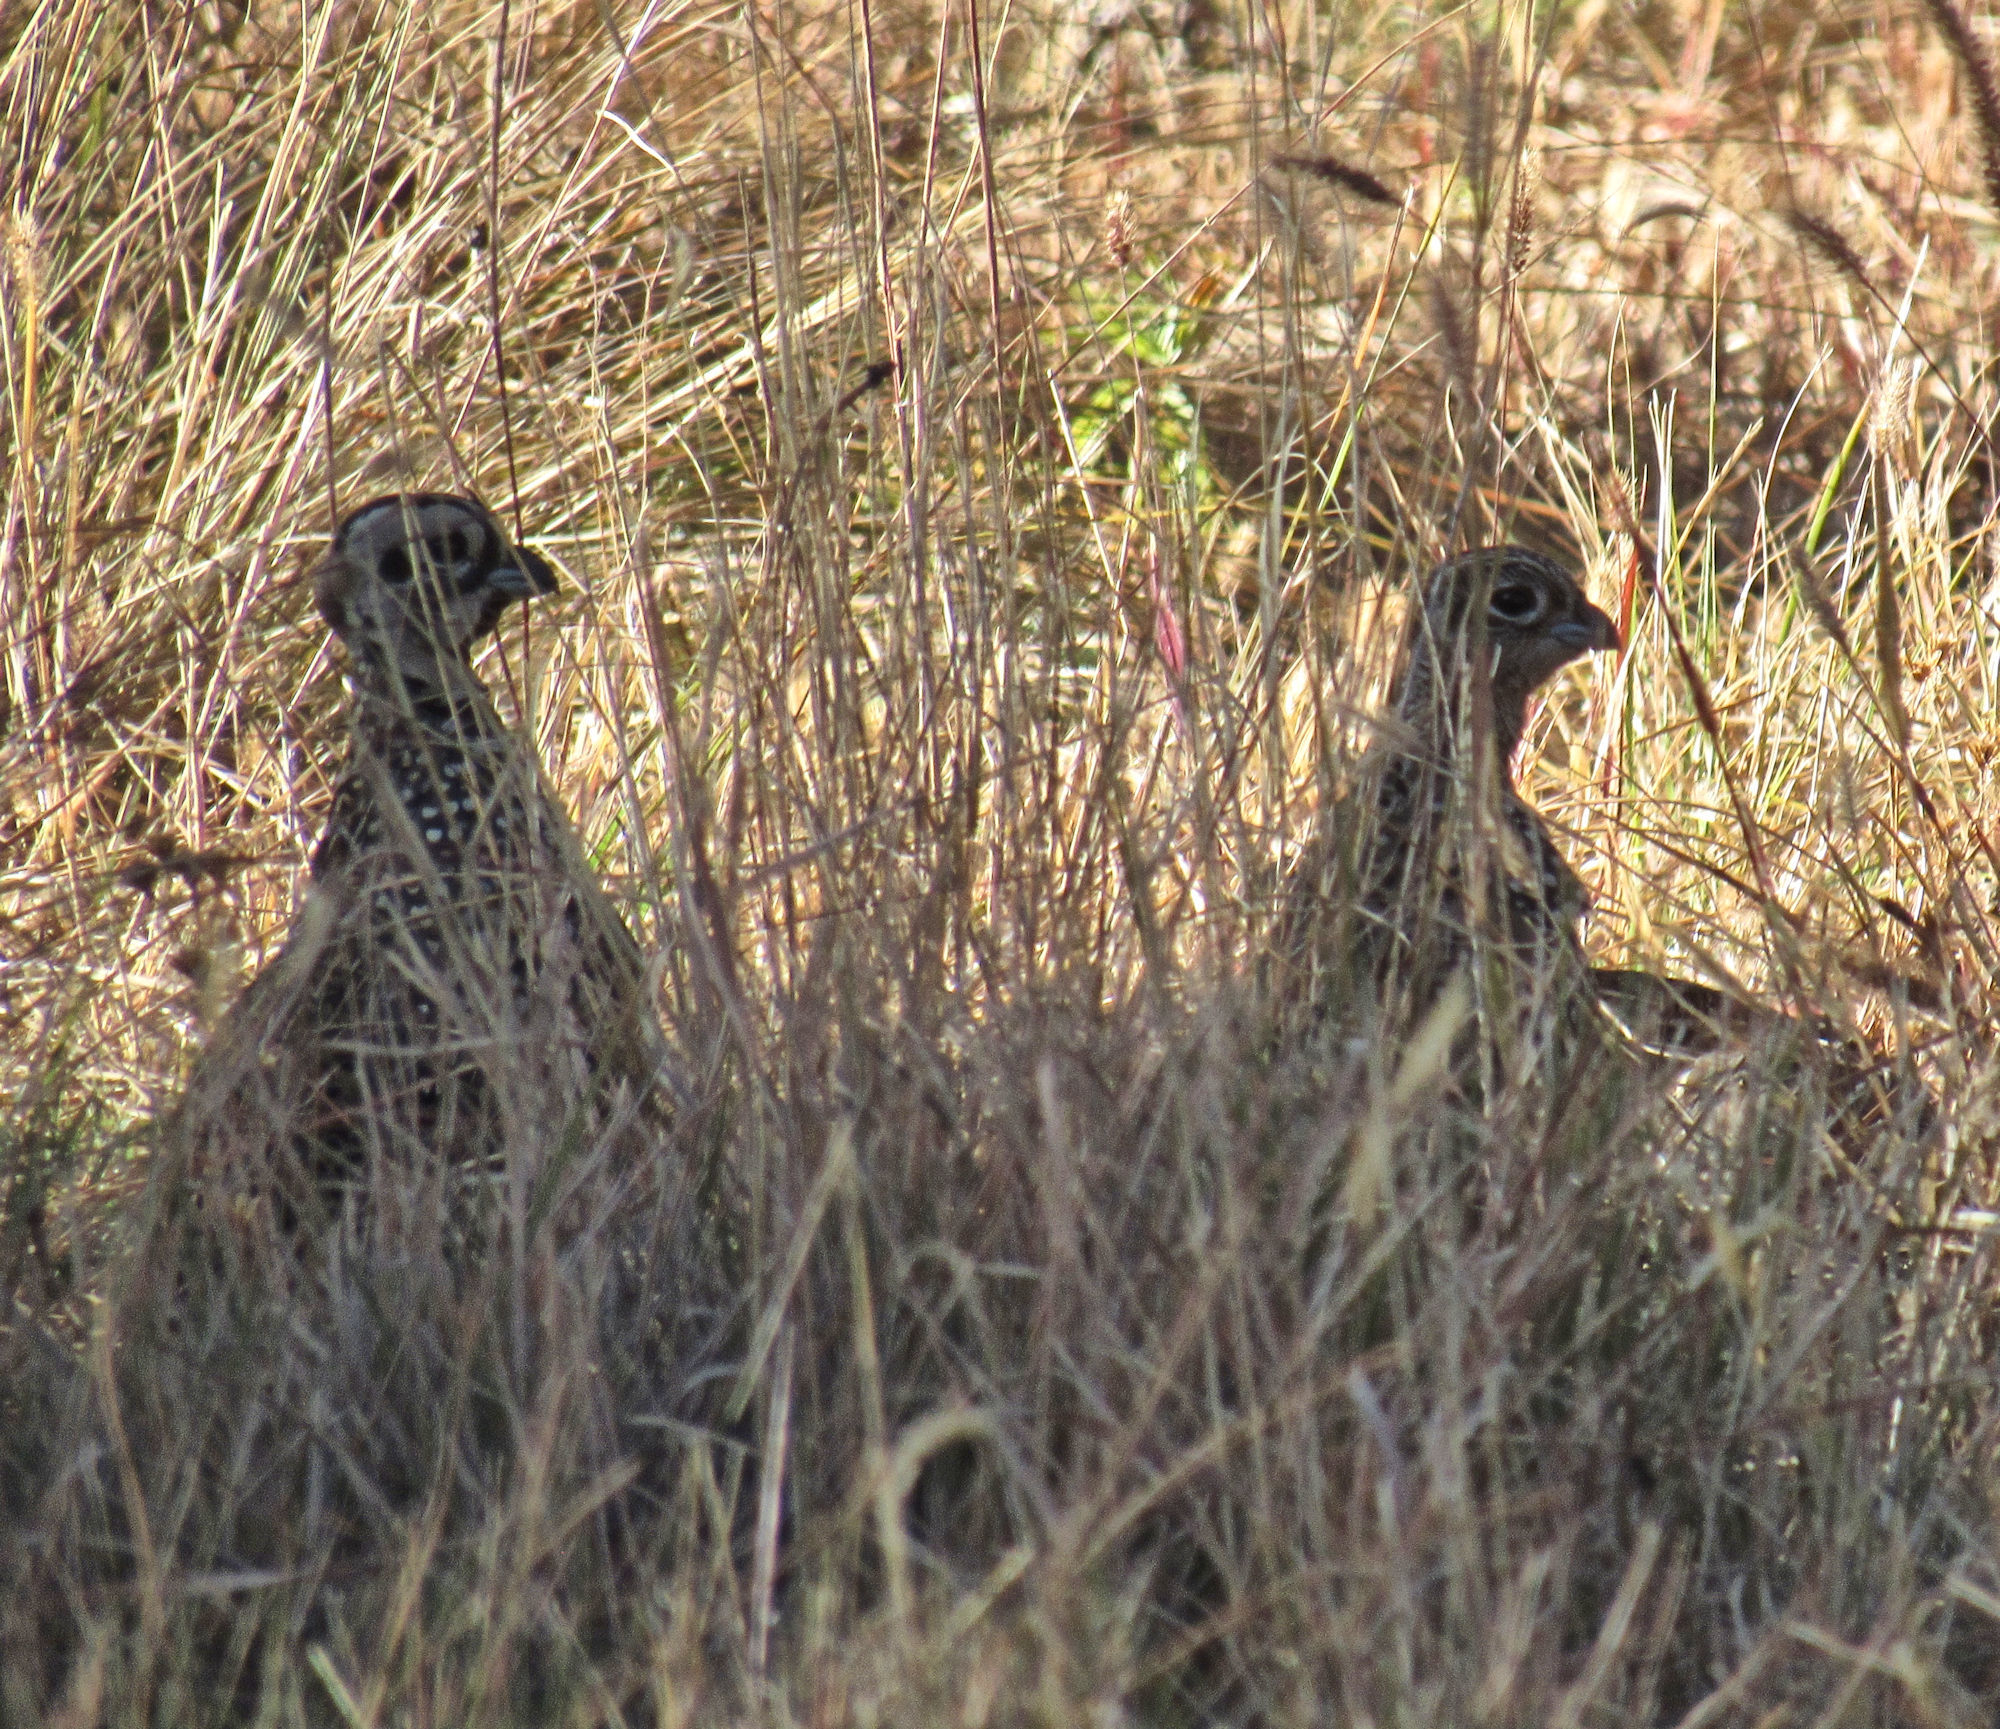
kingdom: Animalia
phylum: Chordata
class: Aves
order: Galliformes
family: Odontophoridae
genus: Cyrtonyx
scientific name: Cyrtonyx montezumae
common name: Montezuma quail
